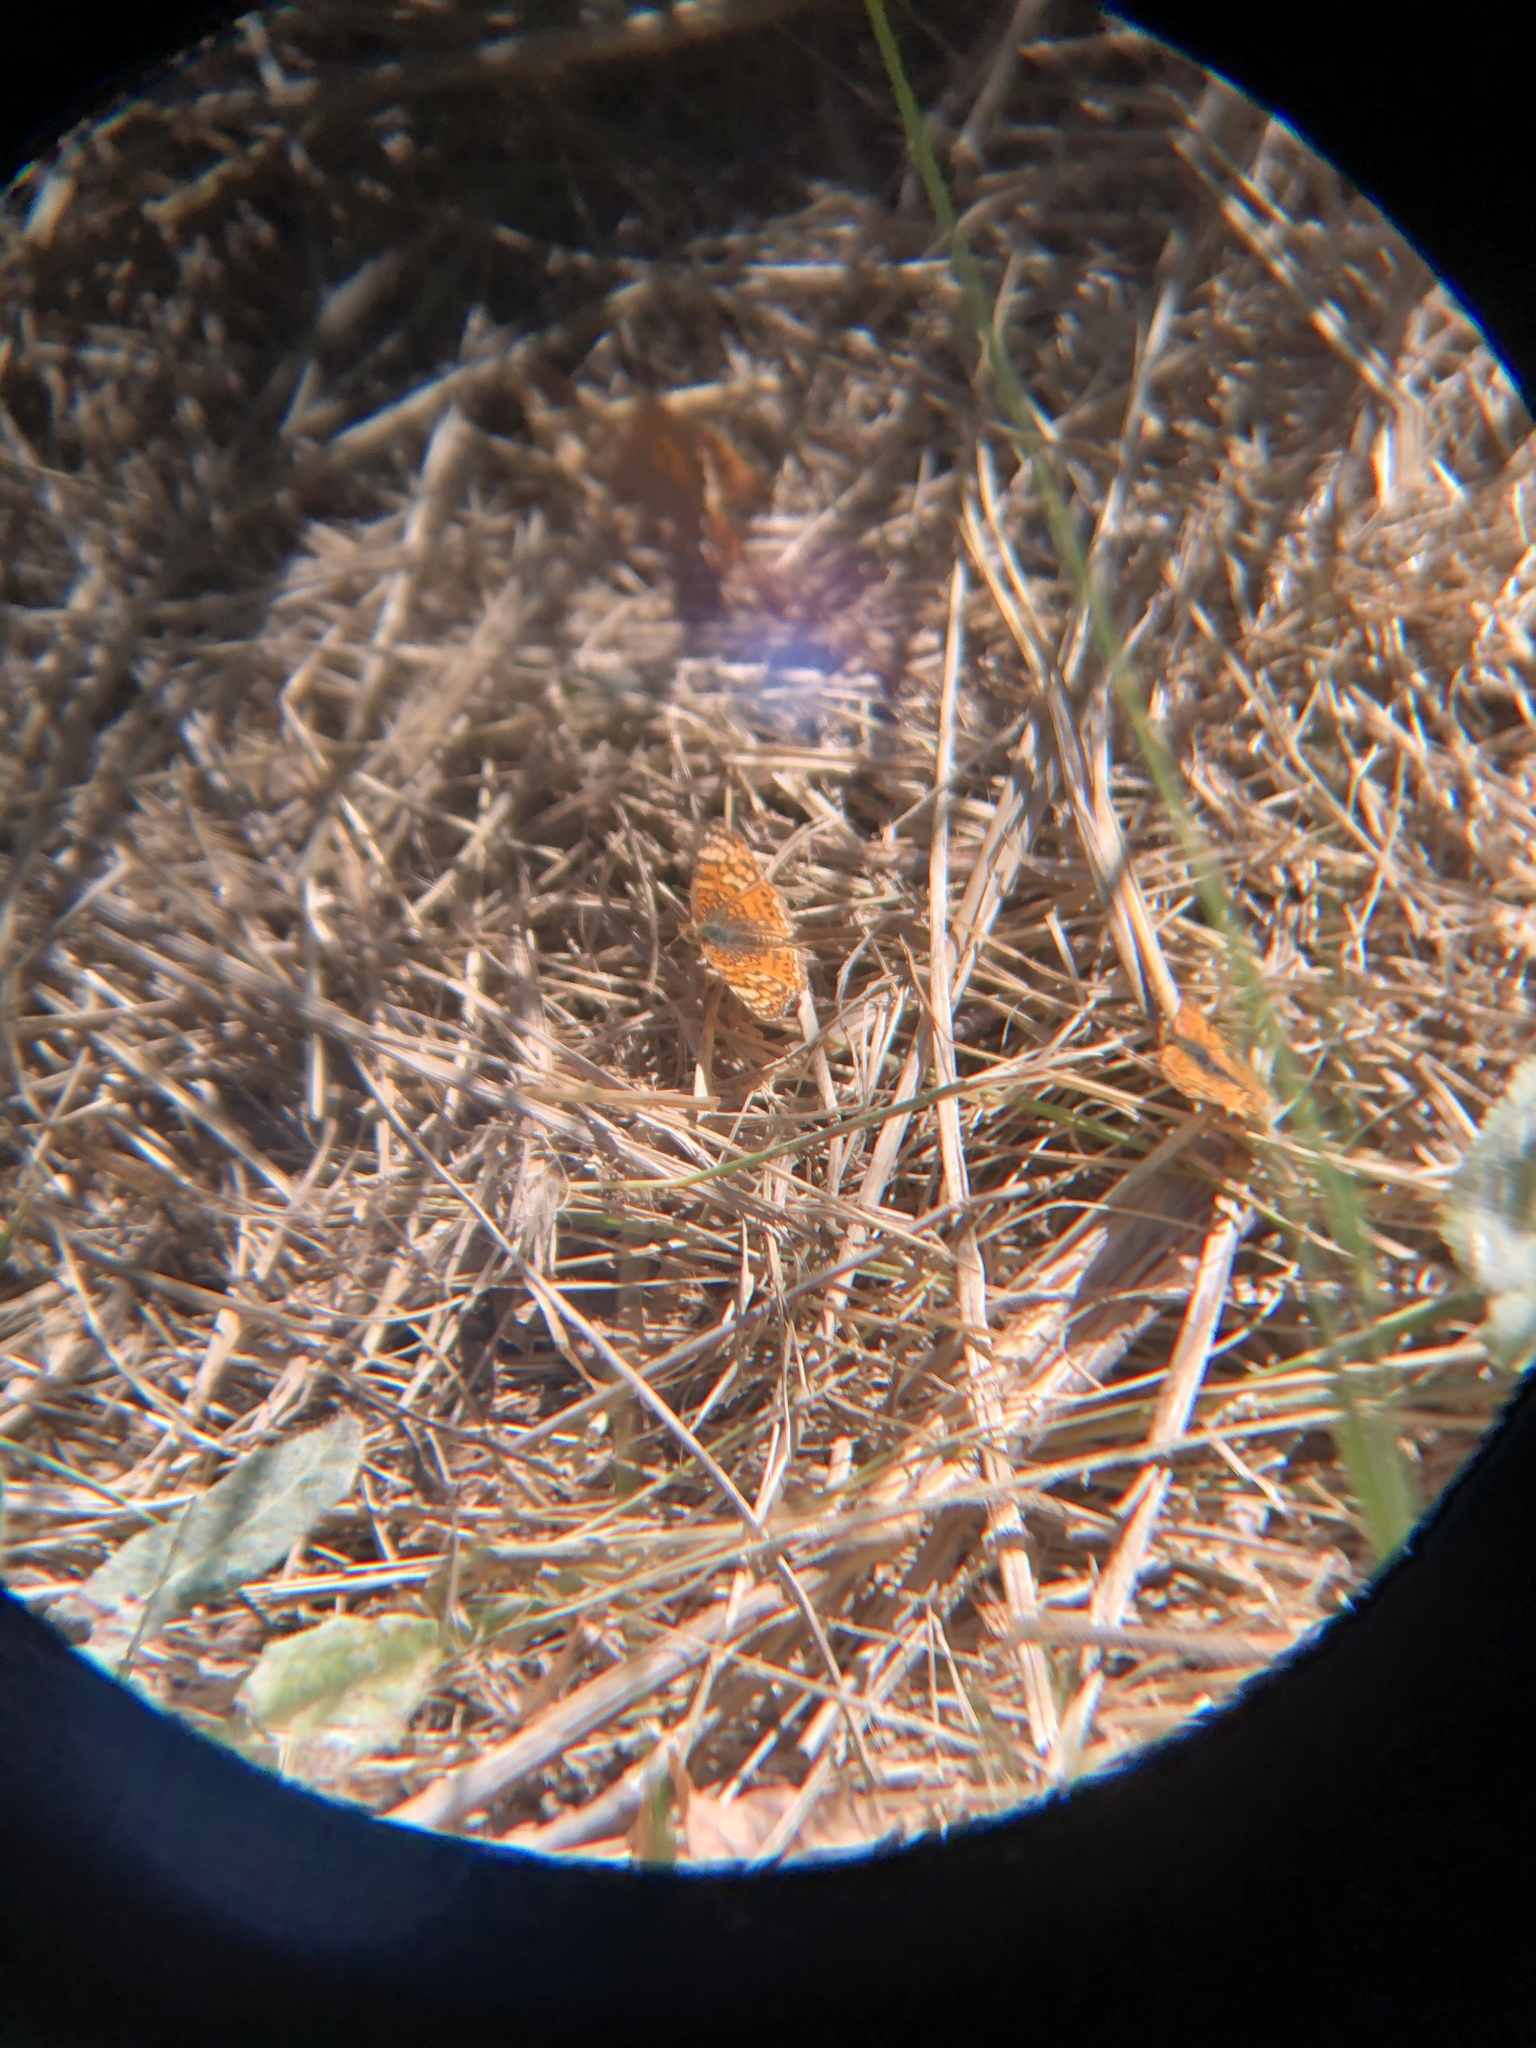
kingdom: Animalia
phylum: Arthropoda
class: Insecta
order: Lepidoptera
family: Nymphalidae
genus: Eresia
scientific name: Eresia aveyrona
